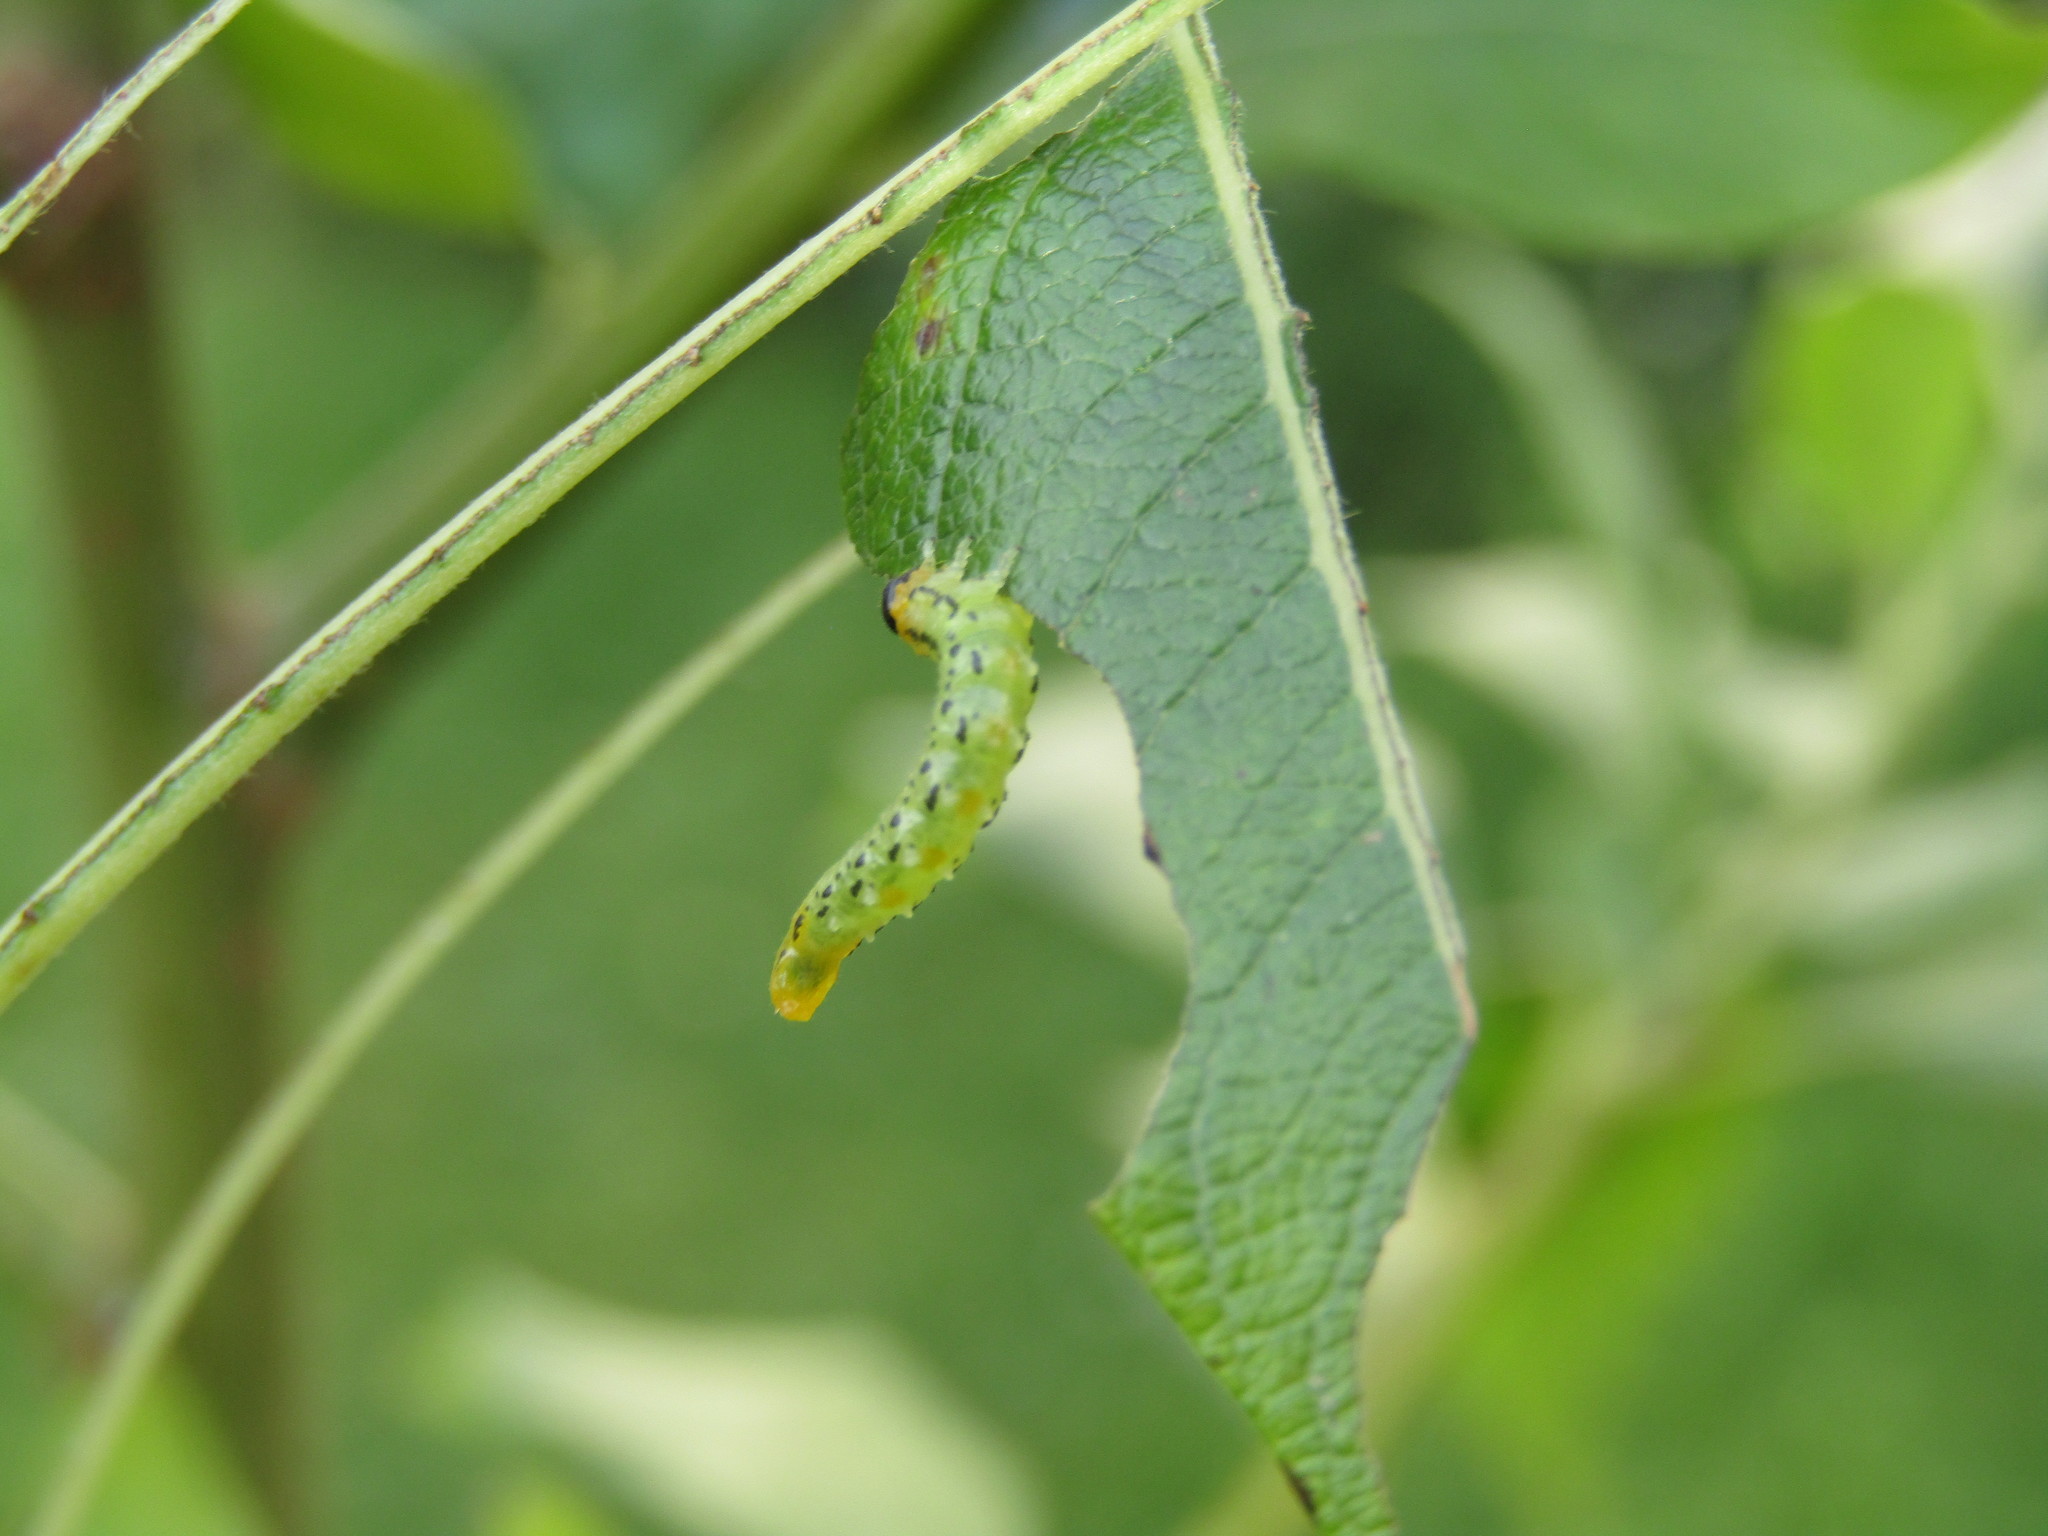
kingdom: Animalia
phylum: Arthropoda
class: Insecta
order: Hymenoptera
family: Tenthredinidae
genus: Nematus
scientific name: Nematus pavidus
